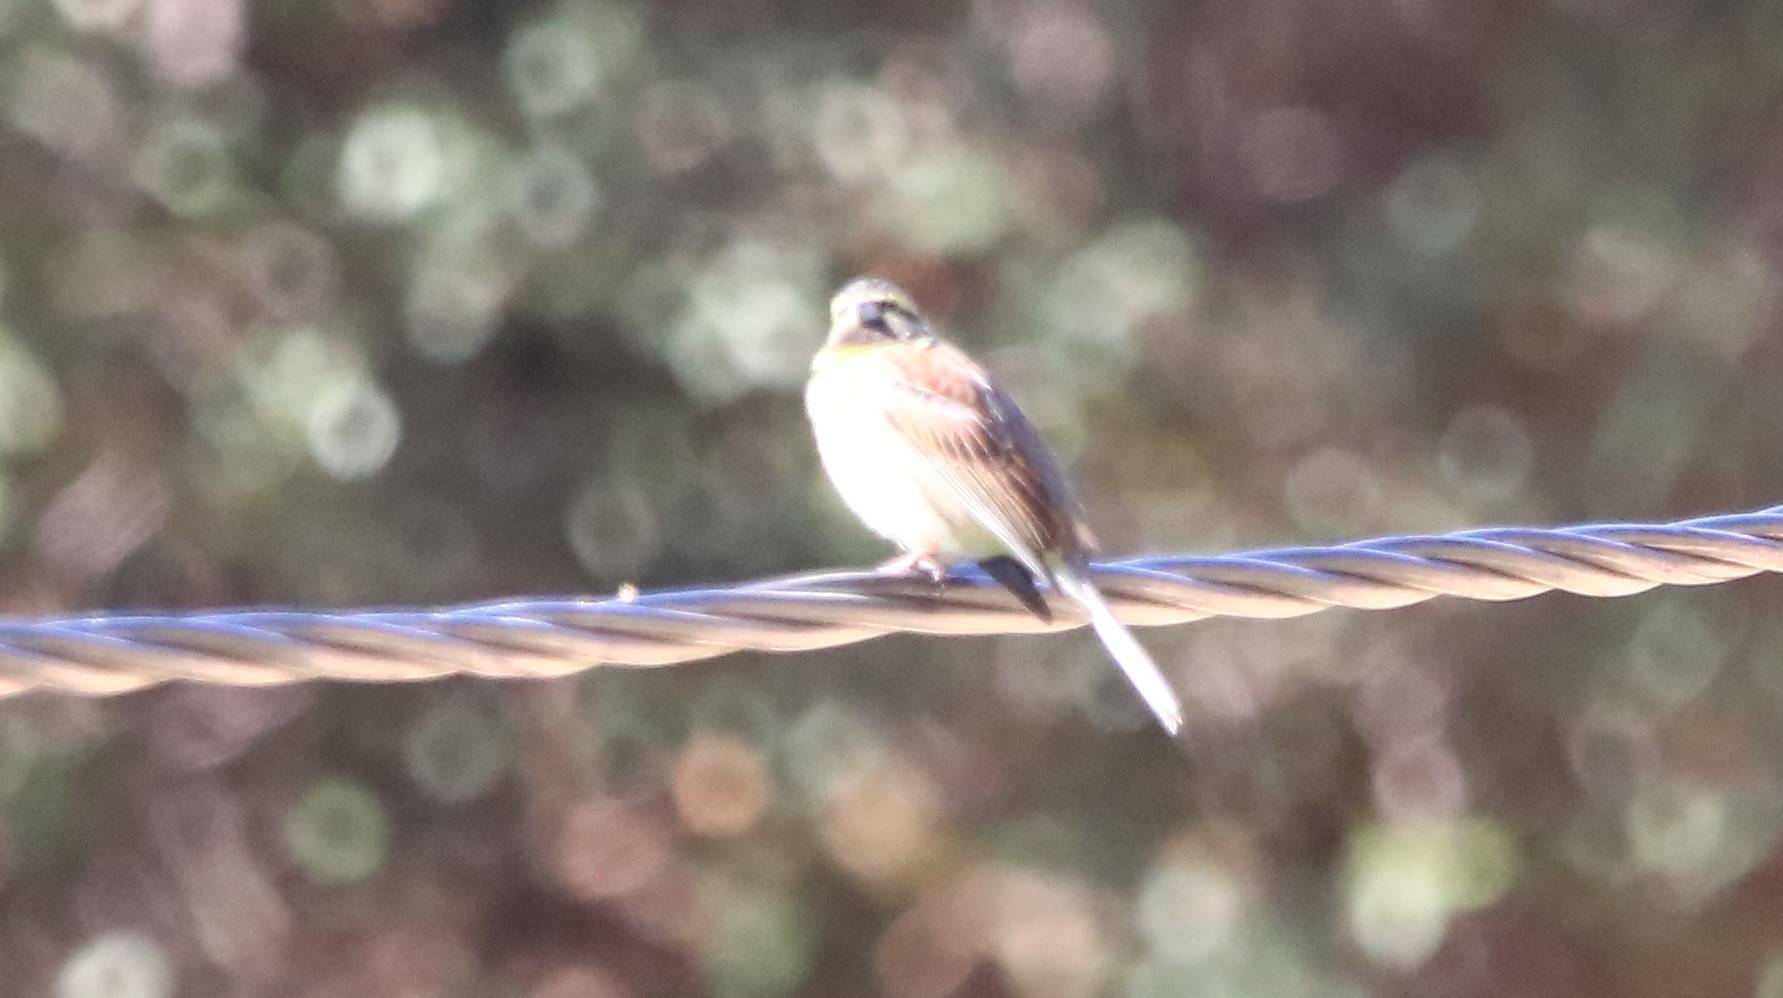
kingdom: Animalia
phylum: Chordata
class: Aves
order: Passeriformes
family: Emberizidae
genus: Emberiza
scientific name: Emberiza cirlus
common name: Cirl bunting
